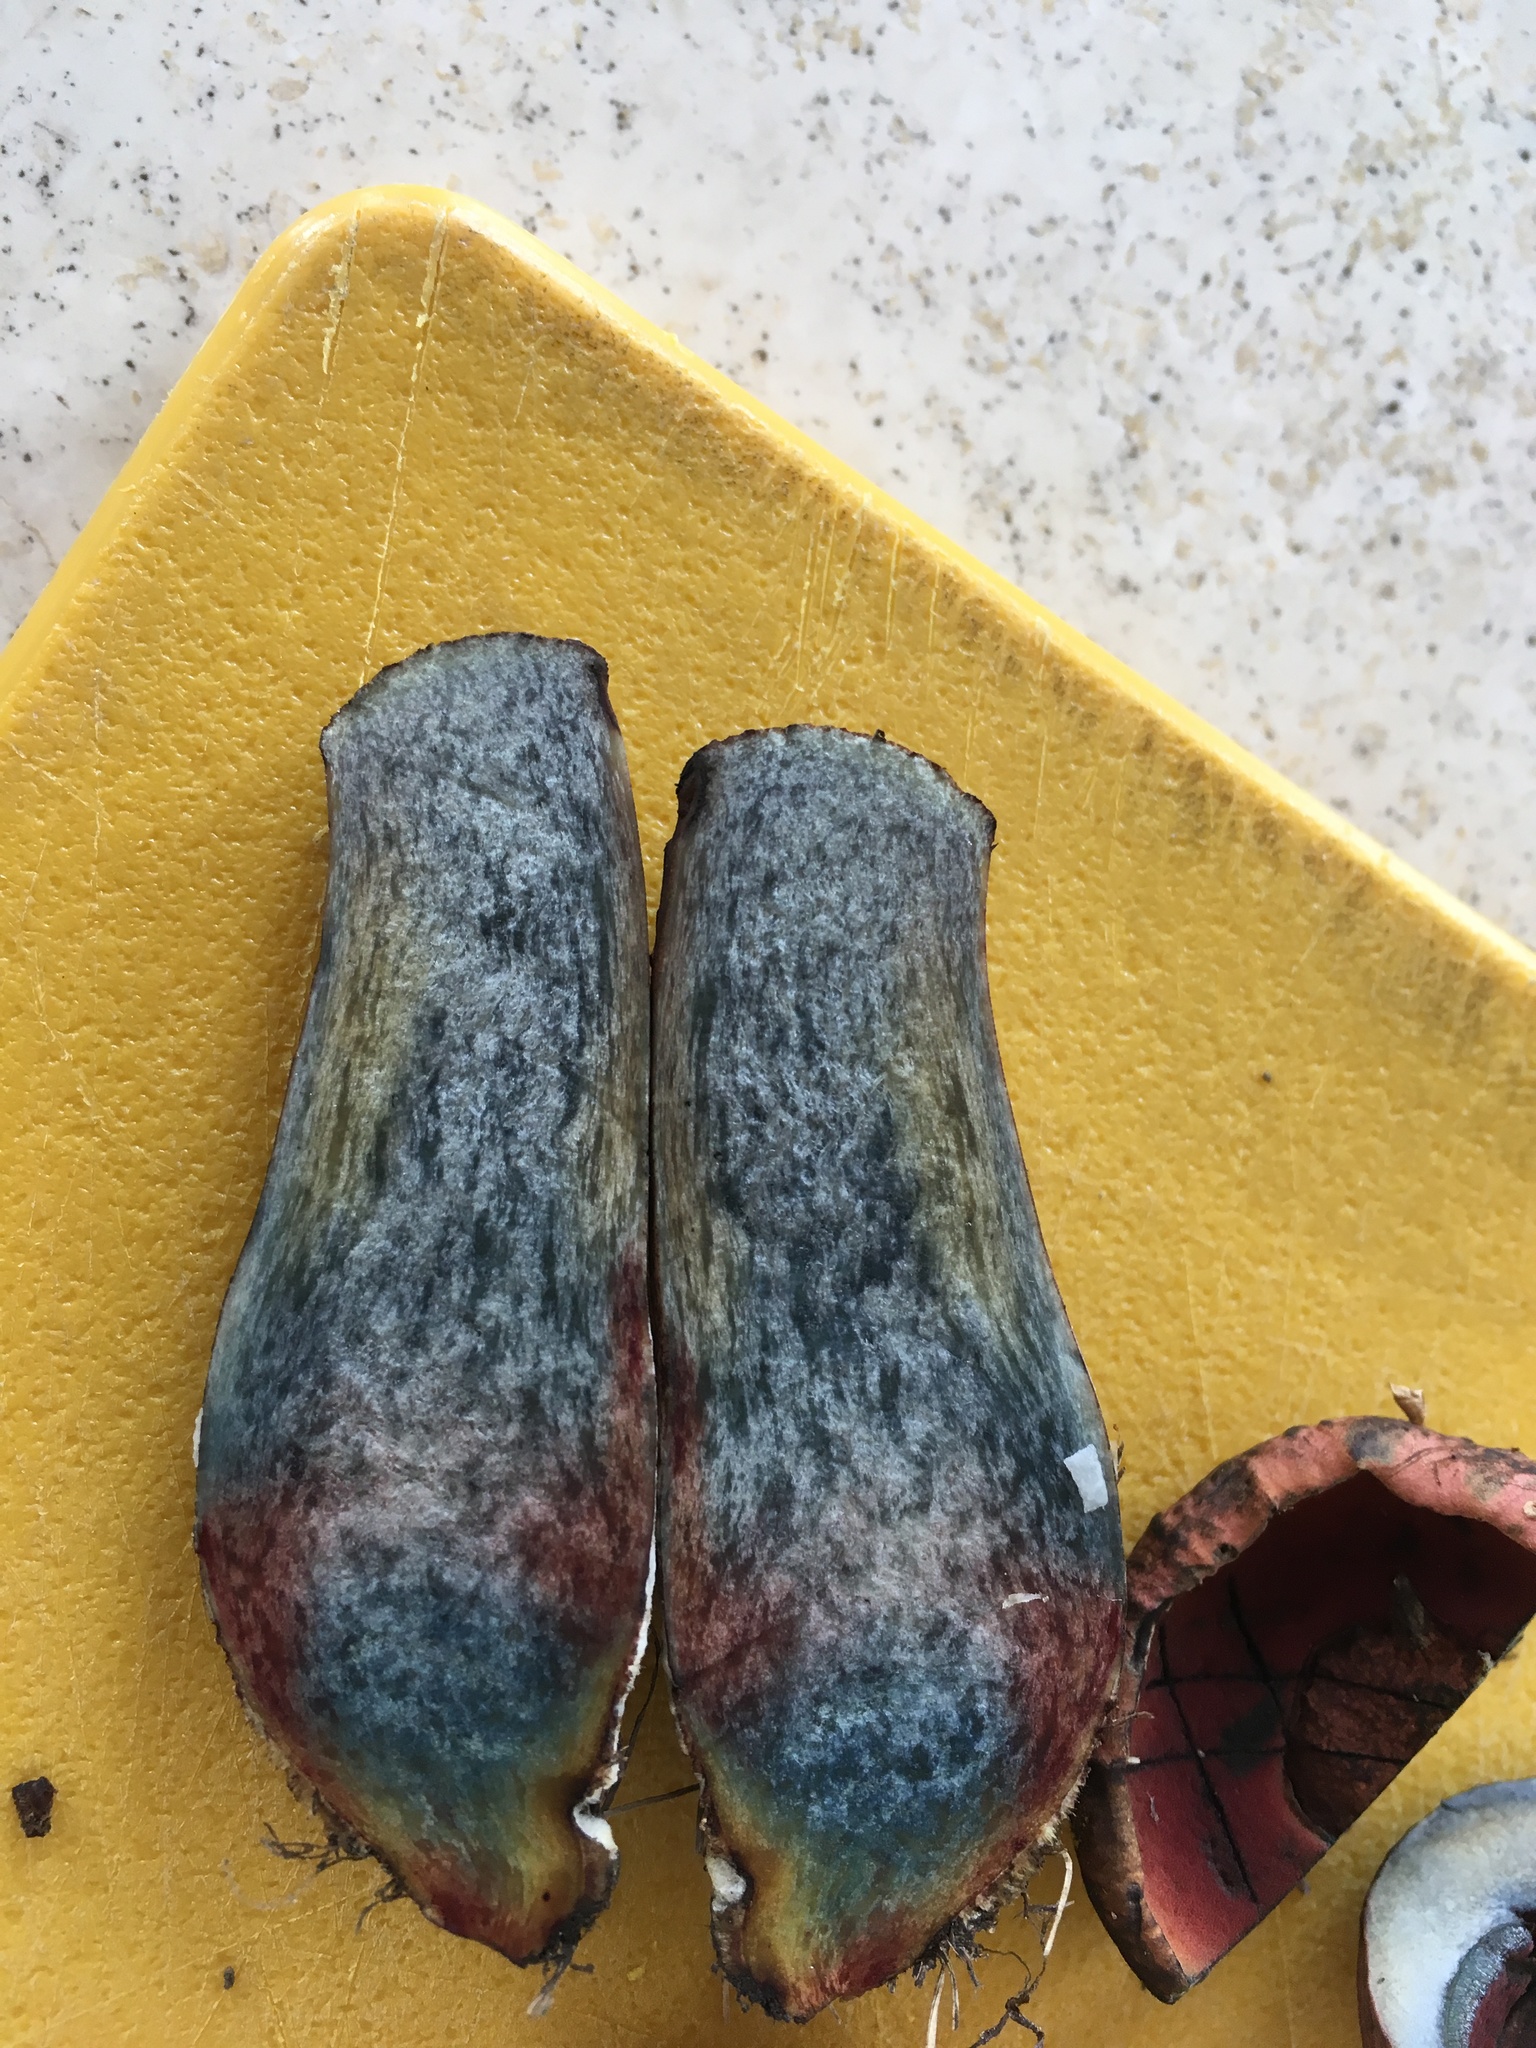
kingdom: Fungi
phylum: Basidiomycota
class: Agaricomycetes
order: Boletales
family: Boletaceae
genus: Neoboletus
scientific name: Neoboletus luridiformis
